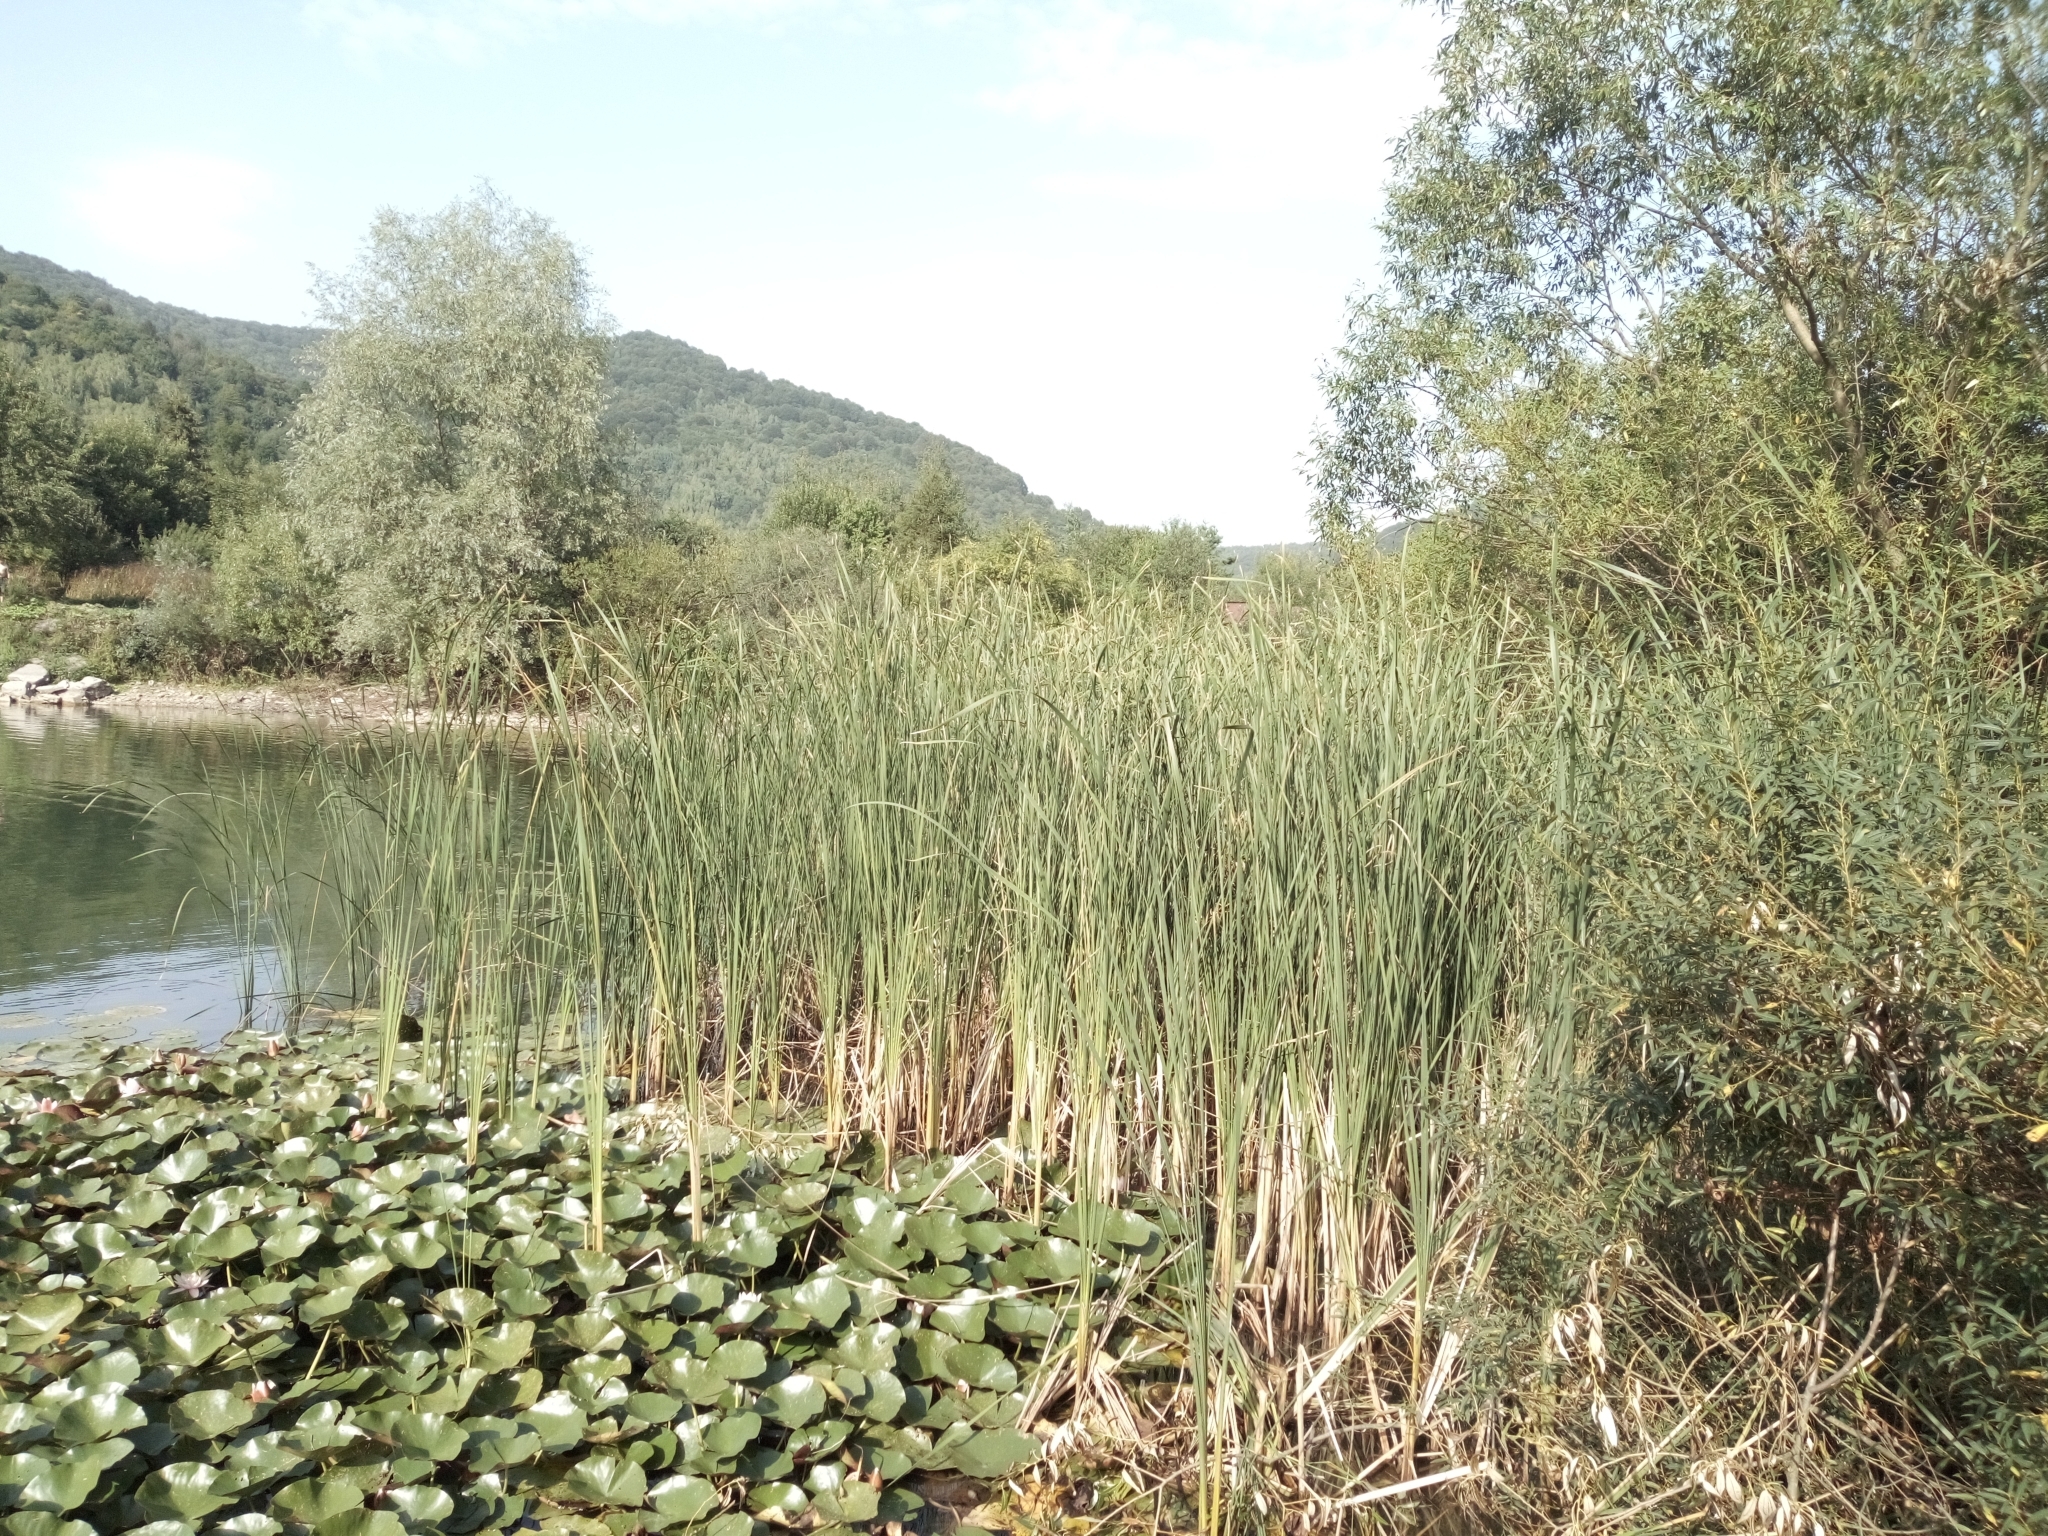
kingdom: Plantae
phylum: Tracheophyta
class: Liliopsida
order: Poales
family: Typhaceae
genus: Typha
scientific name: Typha angustifolia
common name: Lesser bulrush
